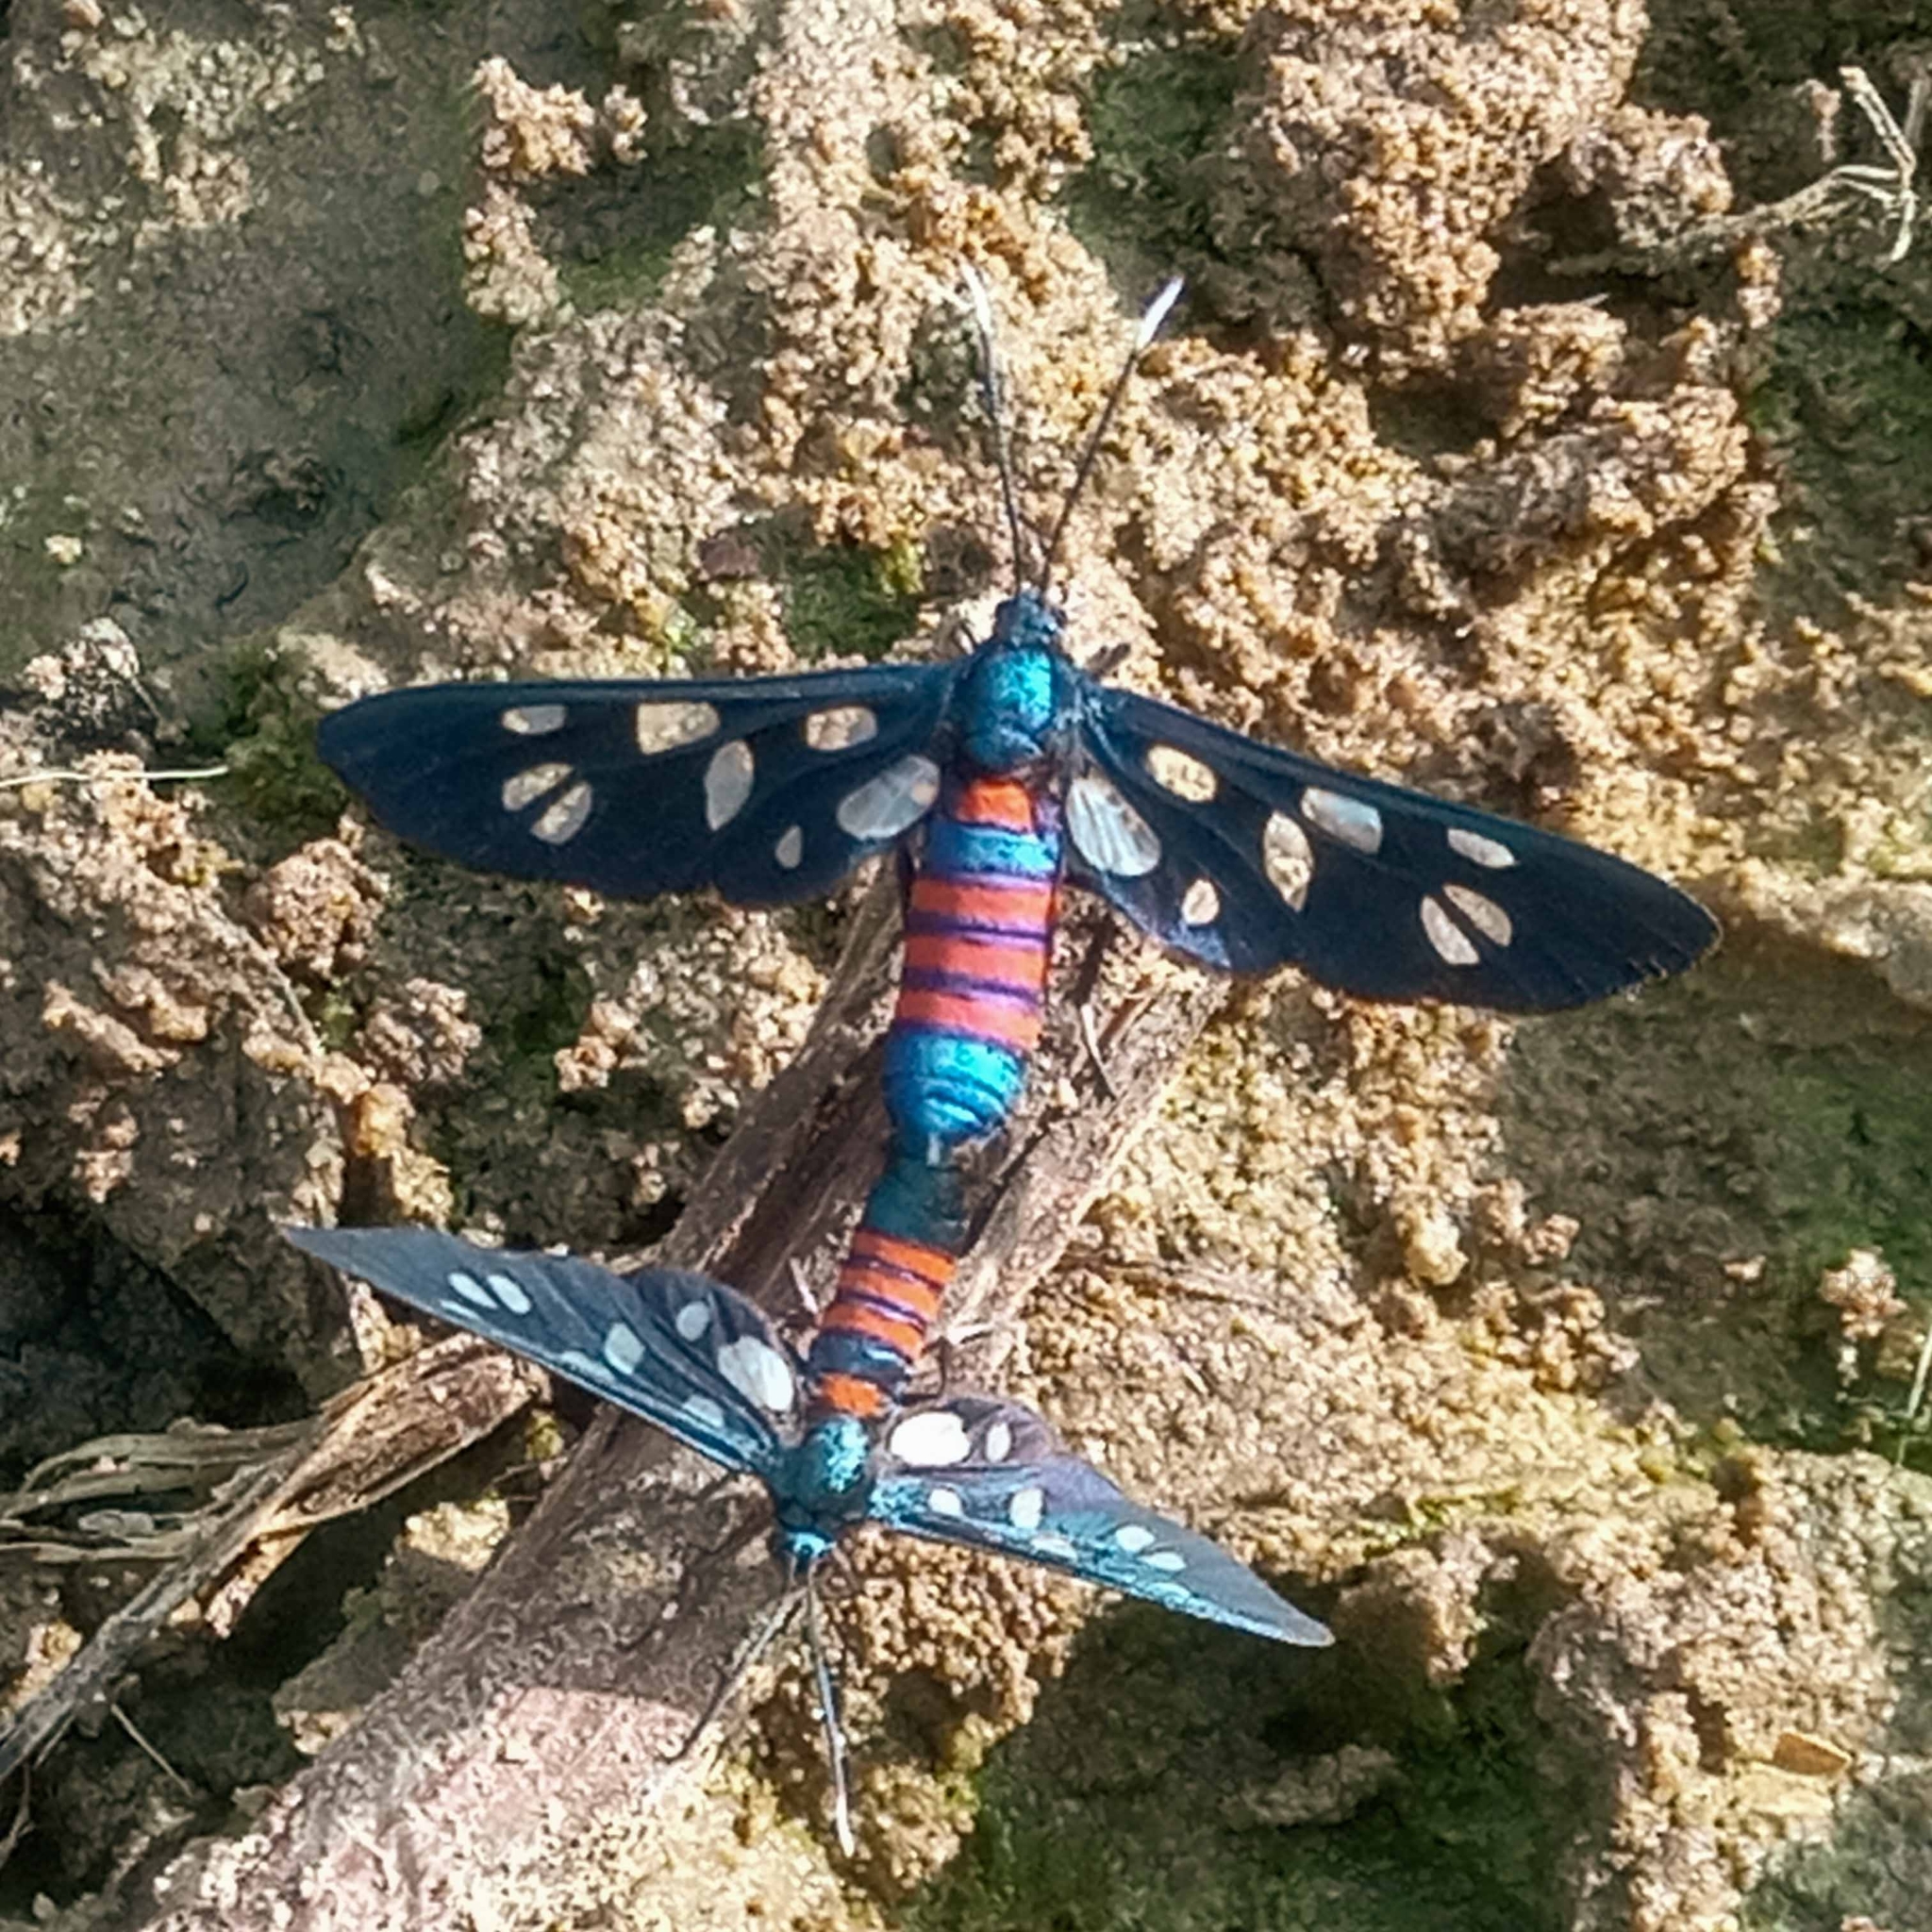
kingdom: Animalia
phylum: Arthropoda
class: Insecta
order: Lepidoptera
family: Erebidae
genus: Amata
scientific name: Amata alicia
